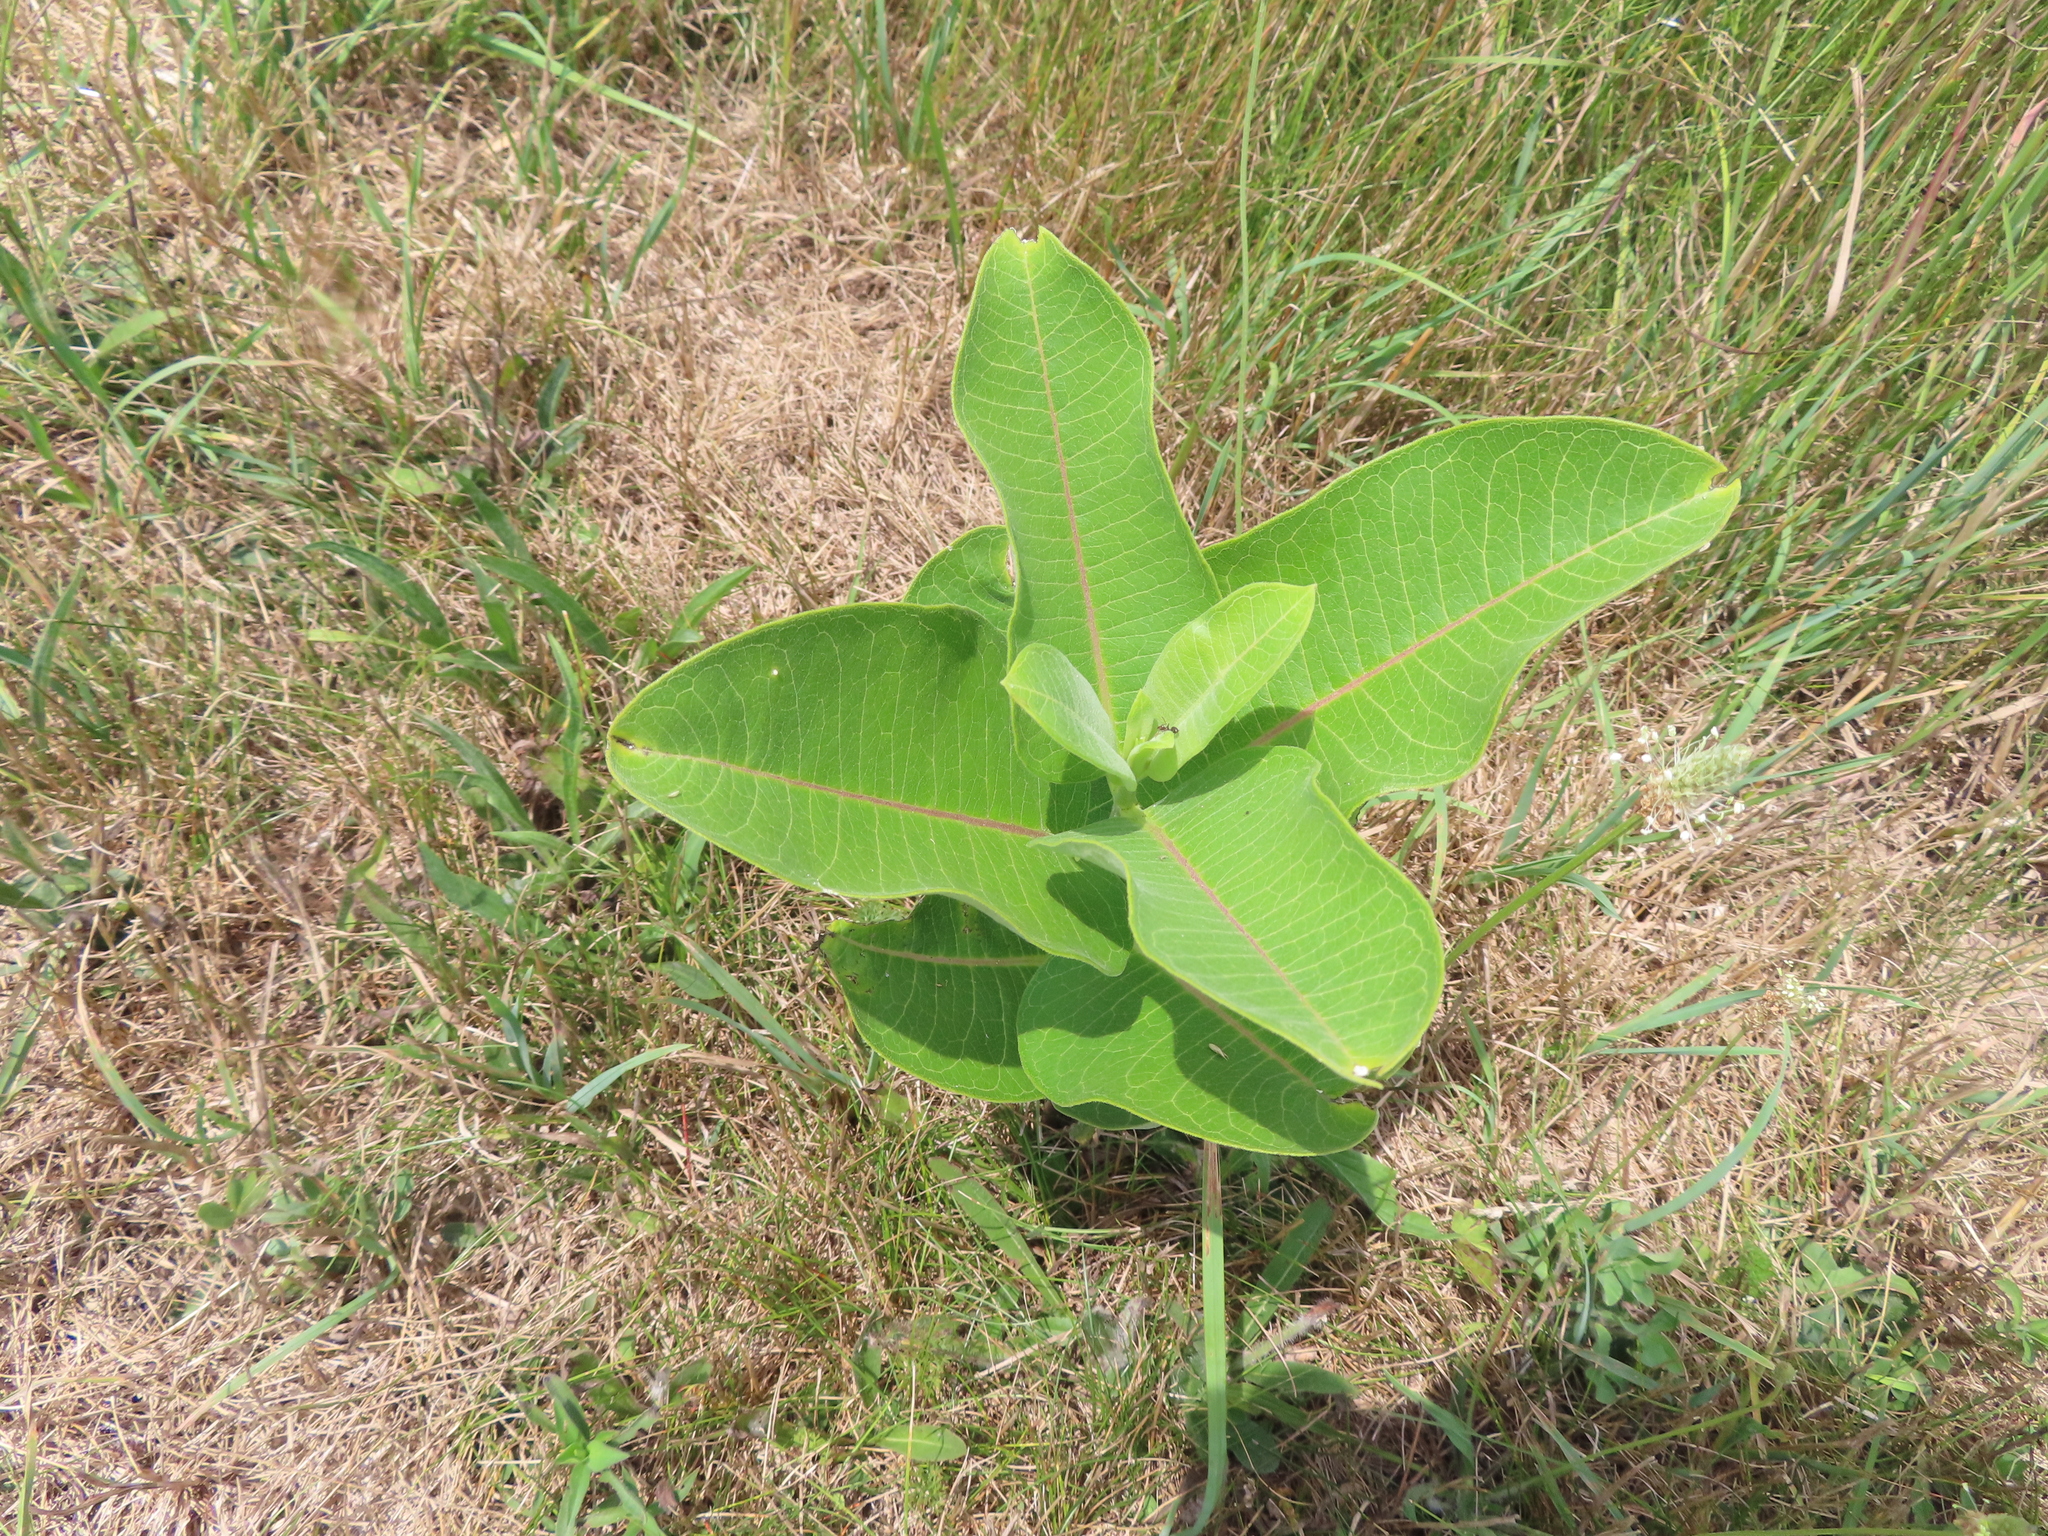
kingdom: Plantae
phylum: Tracheophyta
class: Magnoliopsida
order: Gentianales
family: Apocynaceae
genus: Asclepias
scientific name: Asclepias syriaca
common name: Common milkweed
